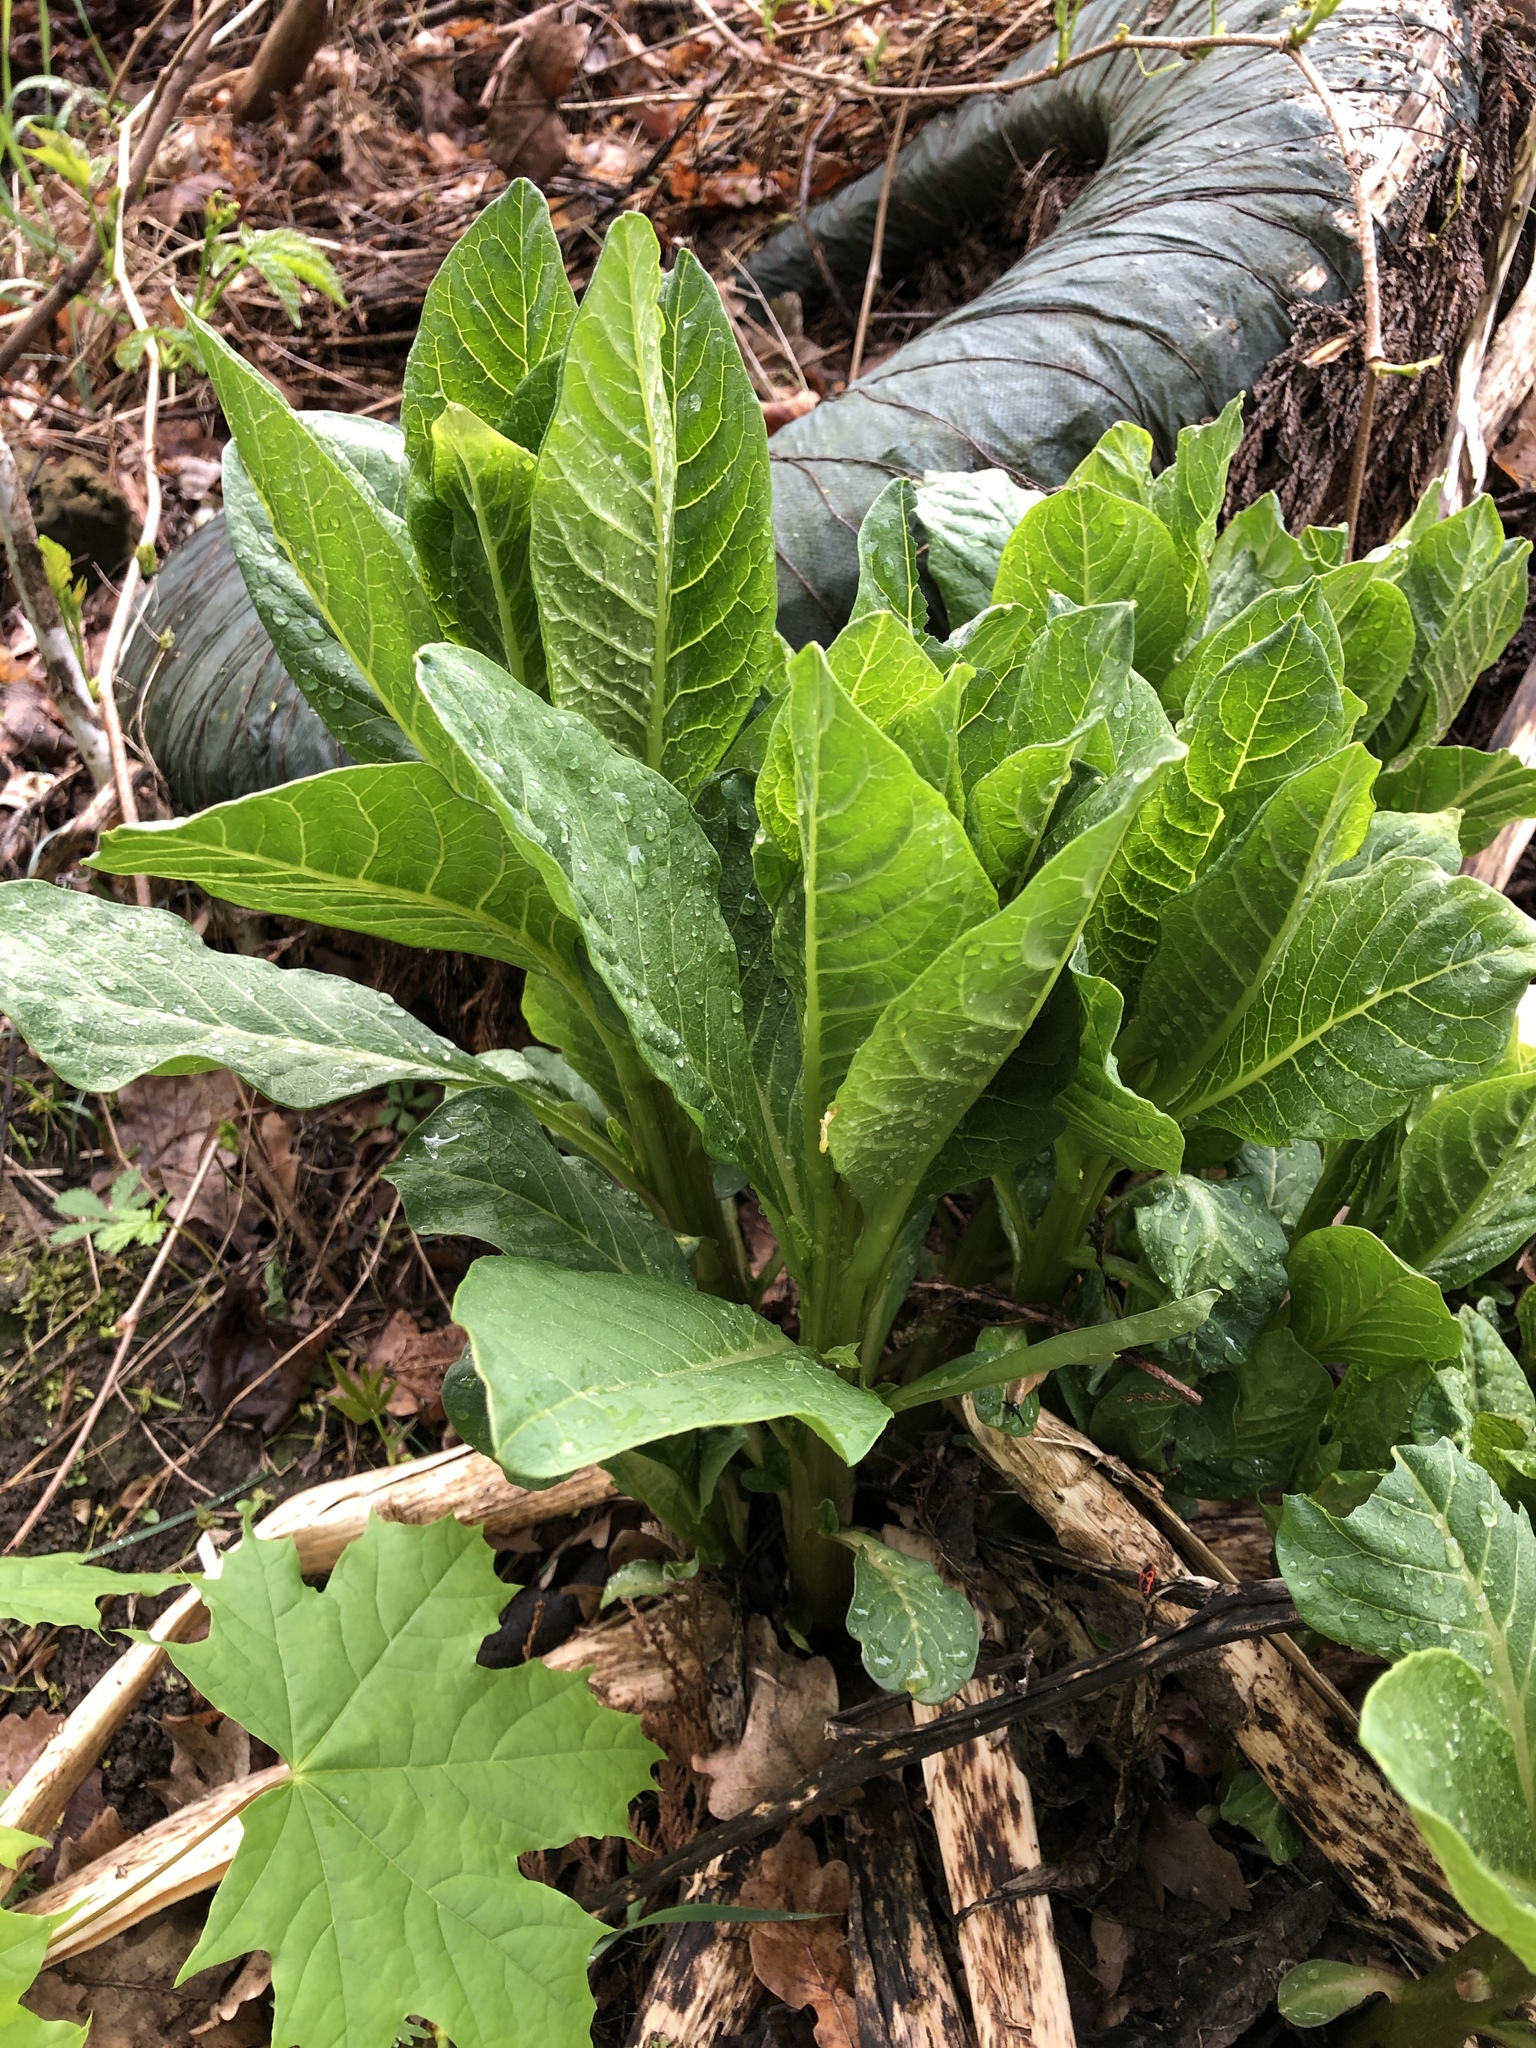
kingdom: Plantae
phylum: Tracheophyta
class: Magnoliopsida
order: Caryophyllales
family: Phytolaccaceae
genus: Phytolacca
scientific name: Phytolacca acinosa
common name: Indian pokeweed
